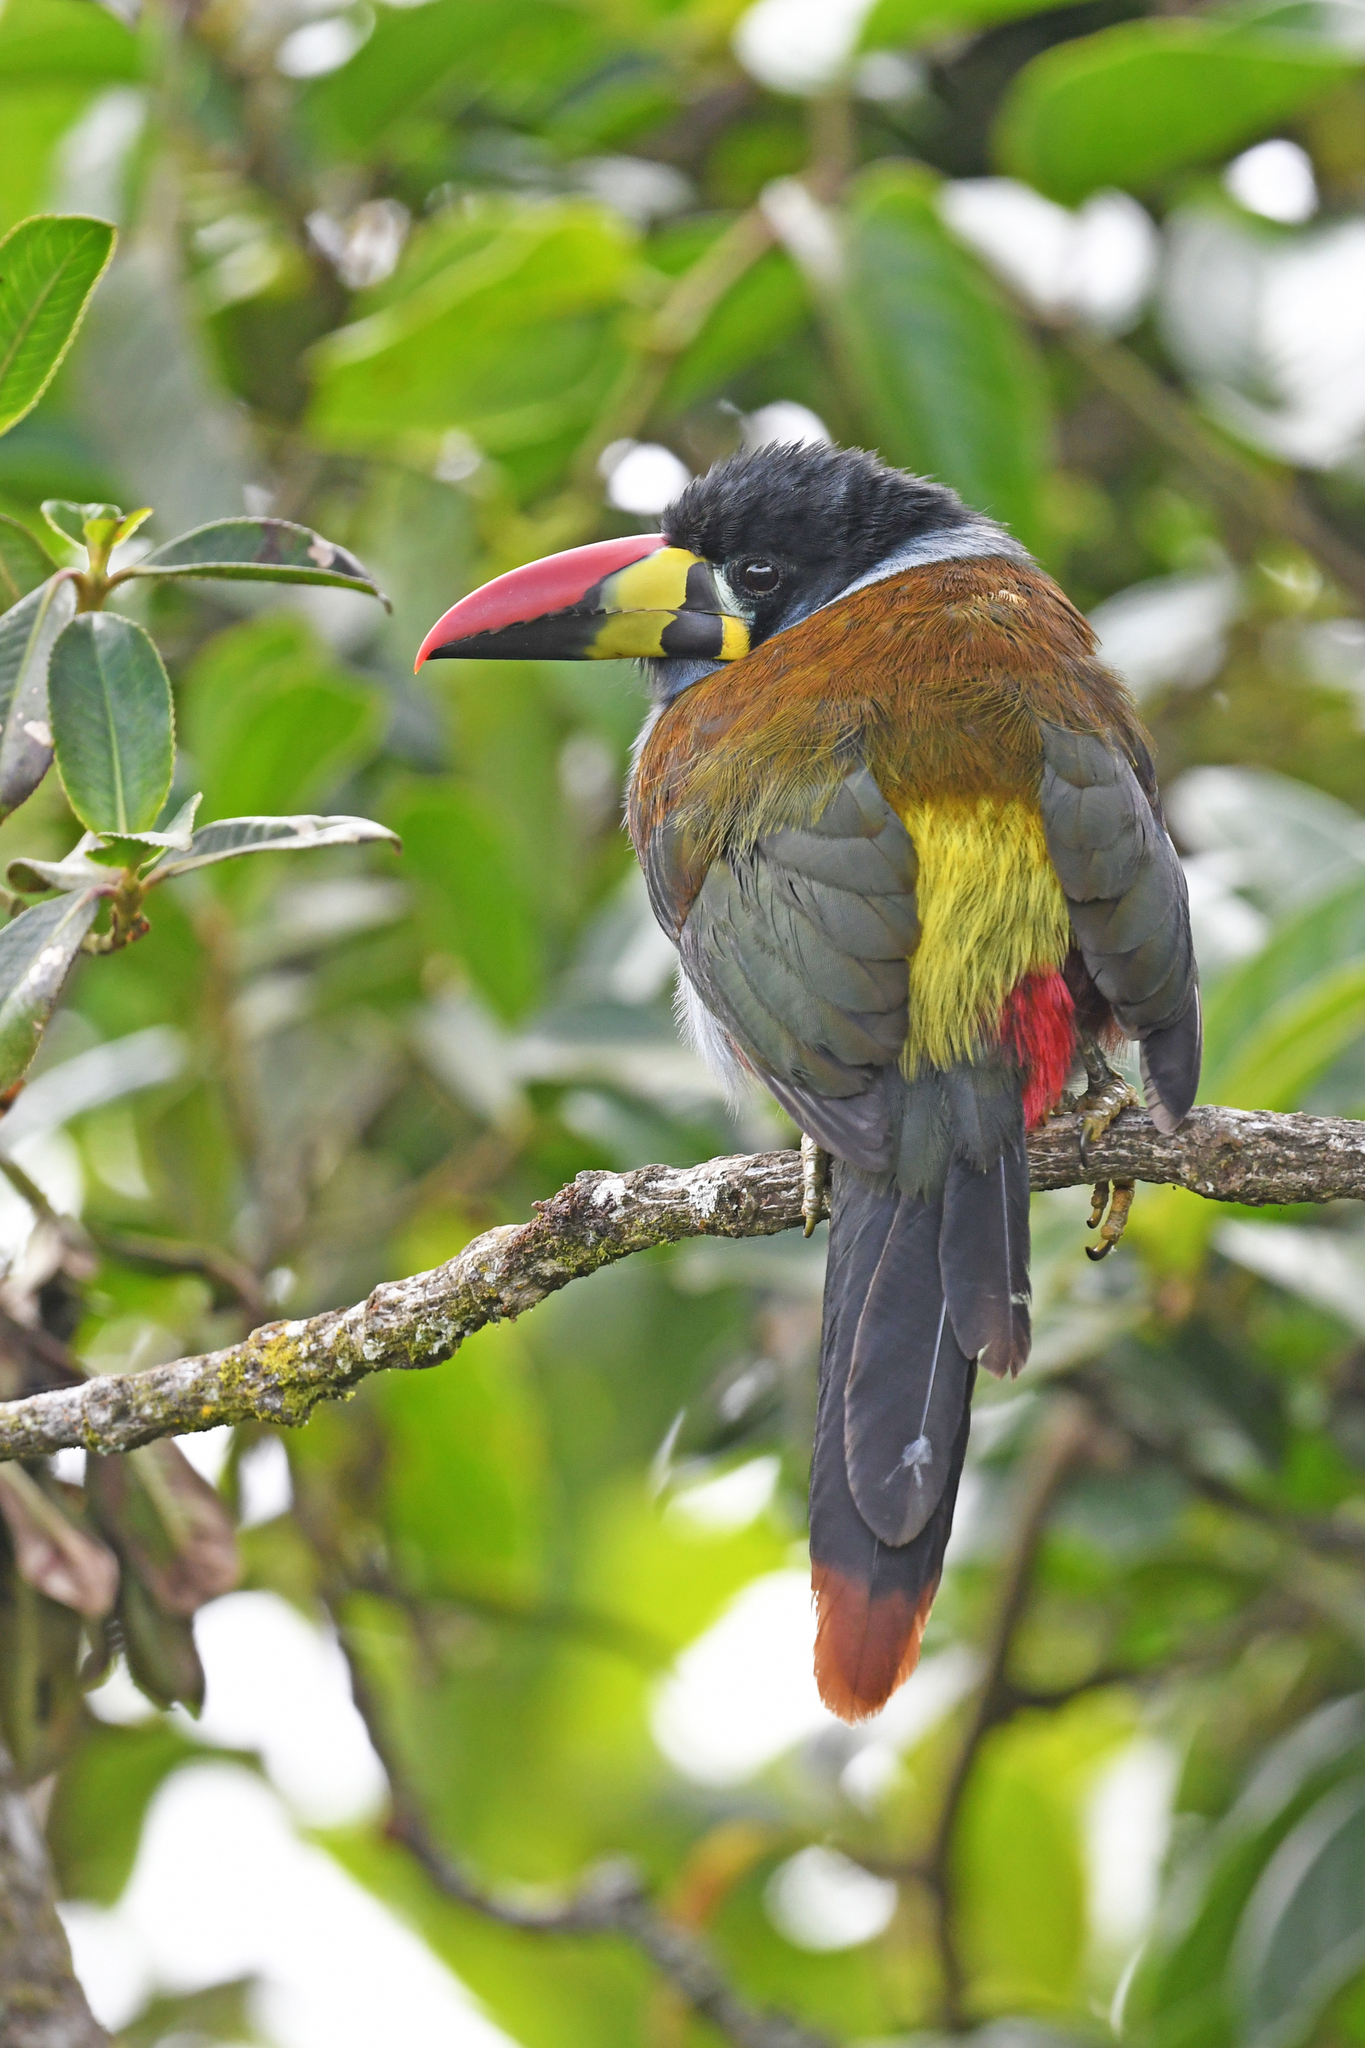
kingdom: Animalia
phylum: Chordata
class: Aves
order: Piciformes
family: Ramphastidae
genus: Andigena
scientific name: Andigena hypoglauca
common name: Grey-breasted mountain toucan
